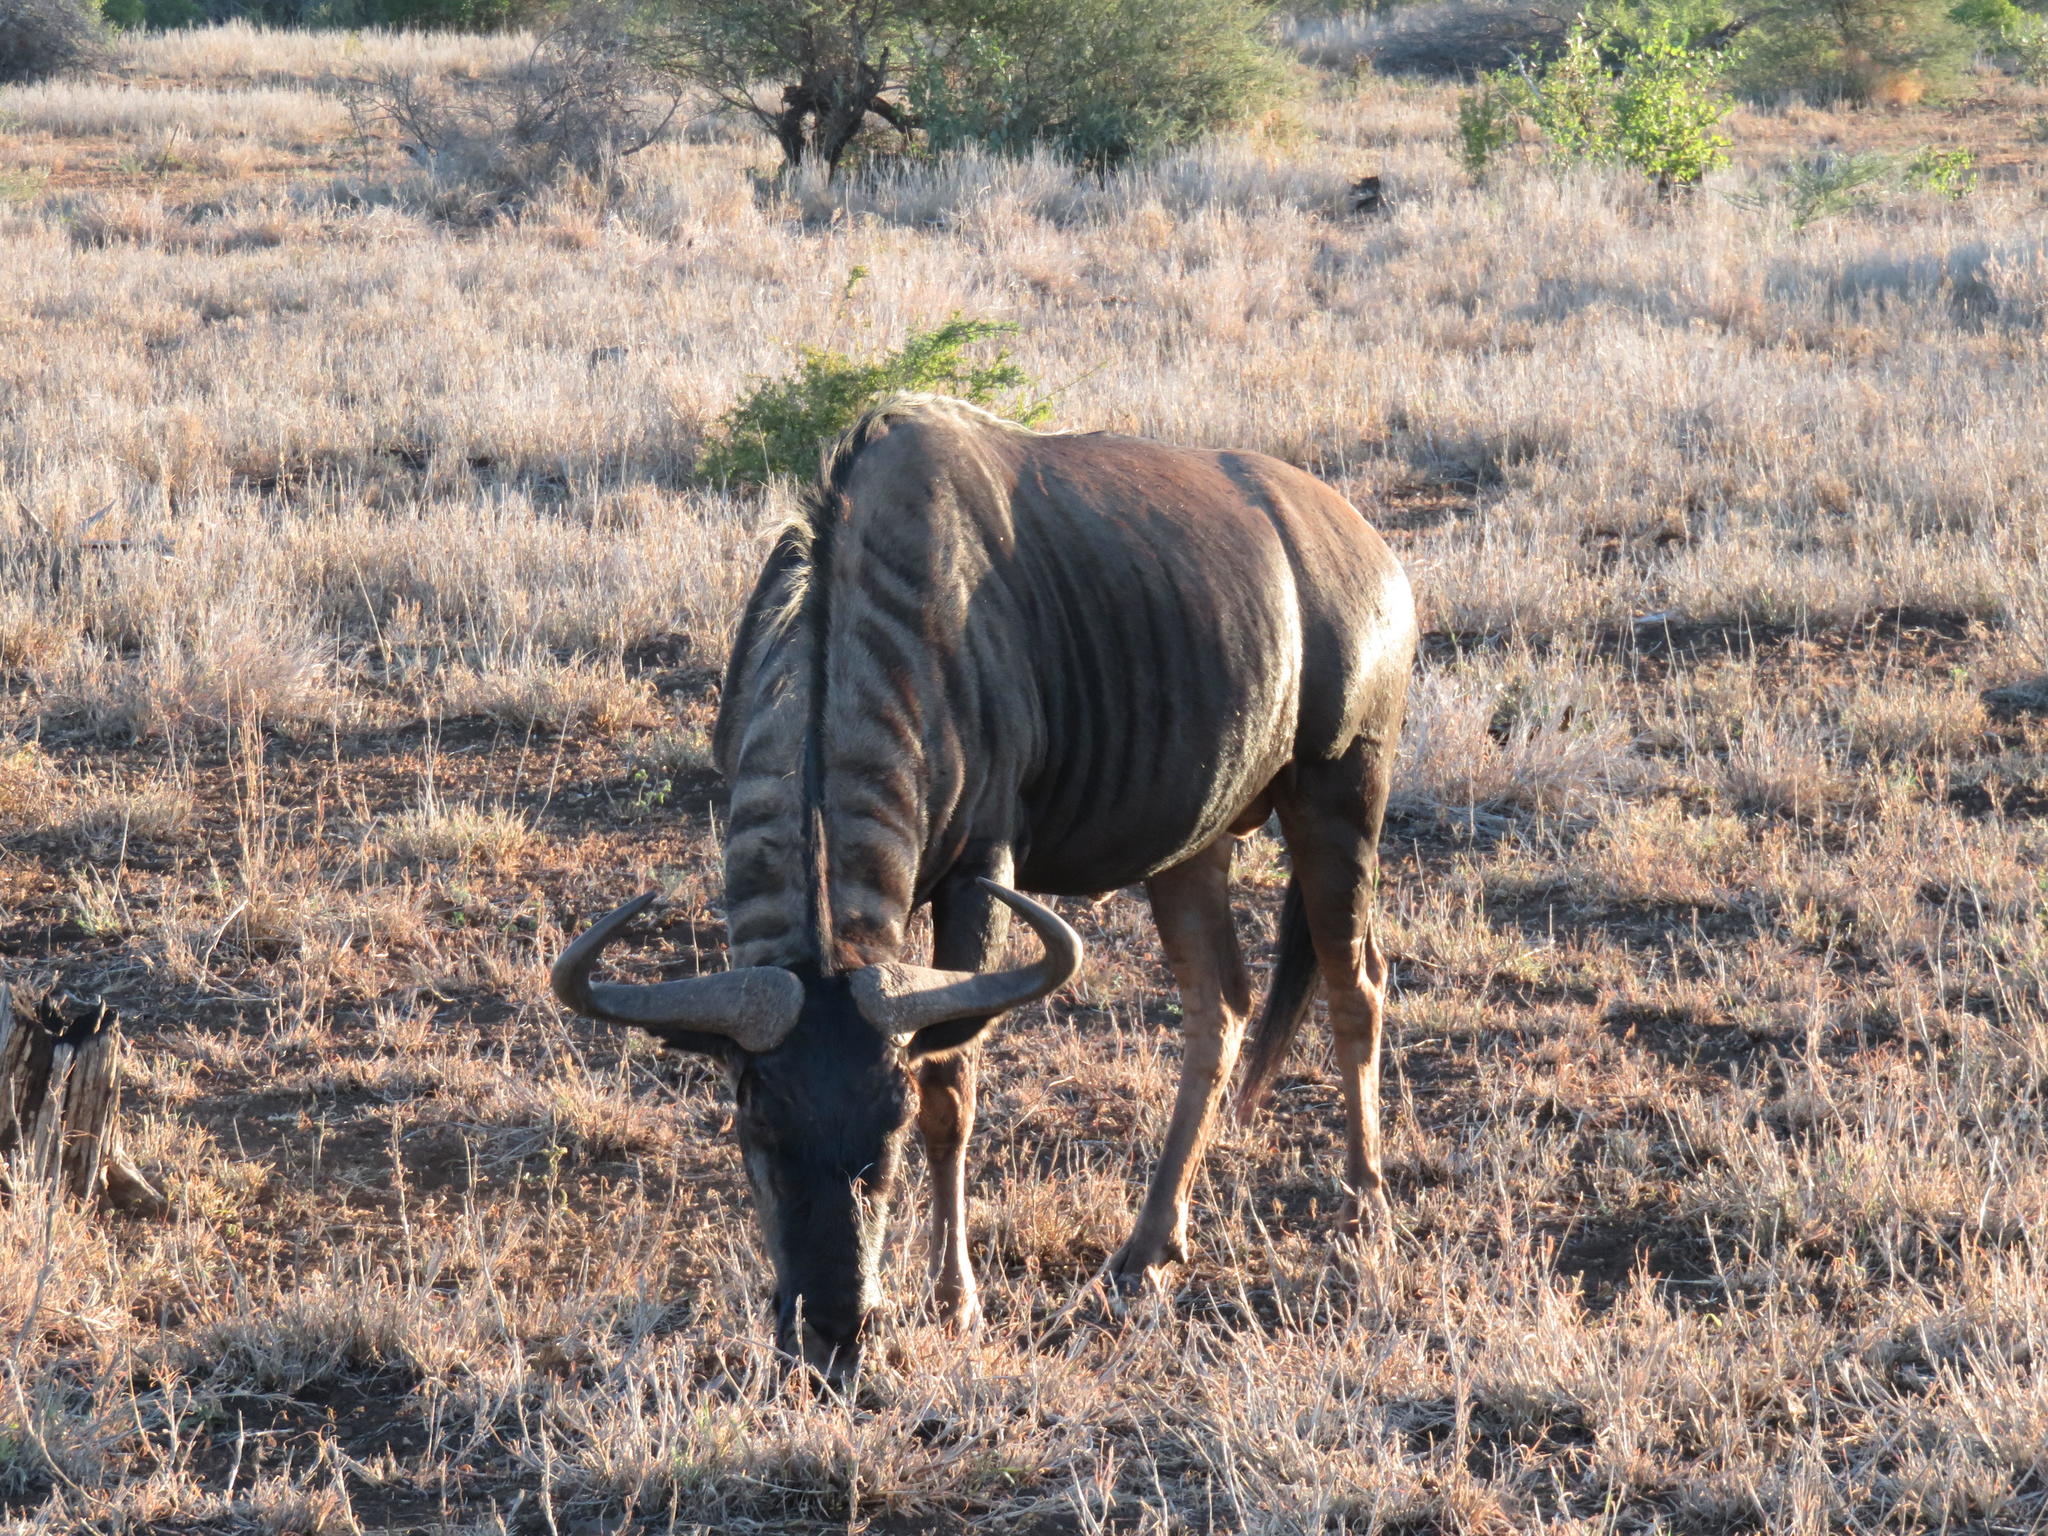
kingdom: Animalia
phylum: Chordata
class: Mammalia
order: Artiodactyla
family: Bovidae
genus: Connochaetes
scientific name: Connochaetes taurinus
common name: Blue wildebeest
